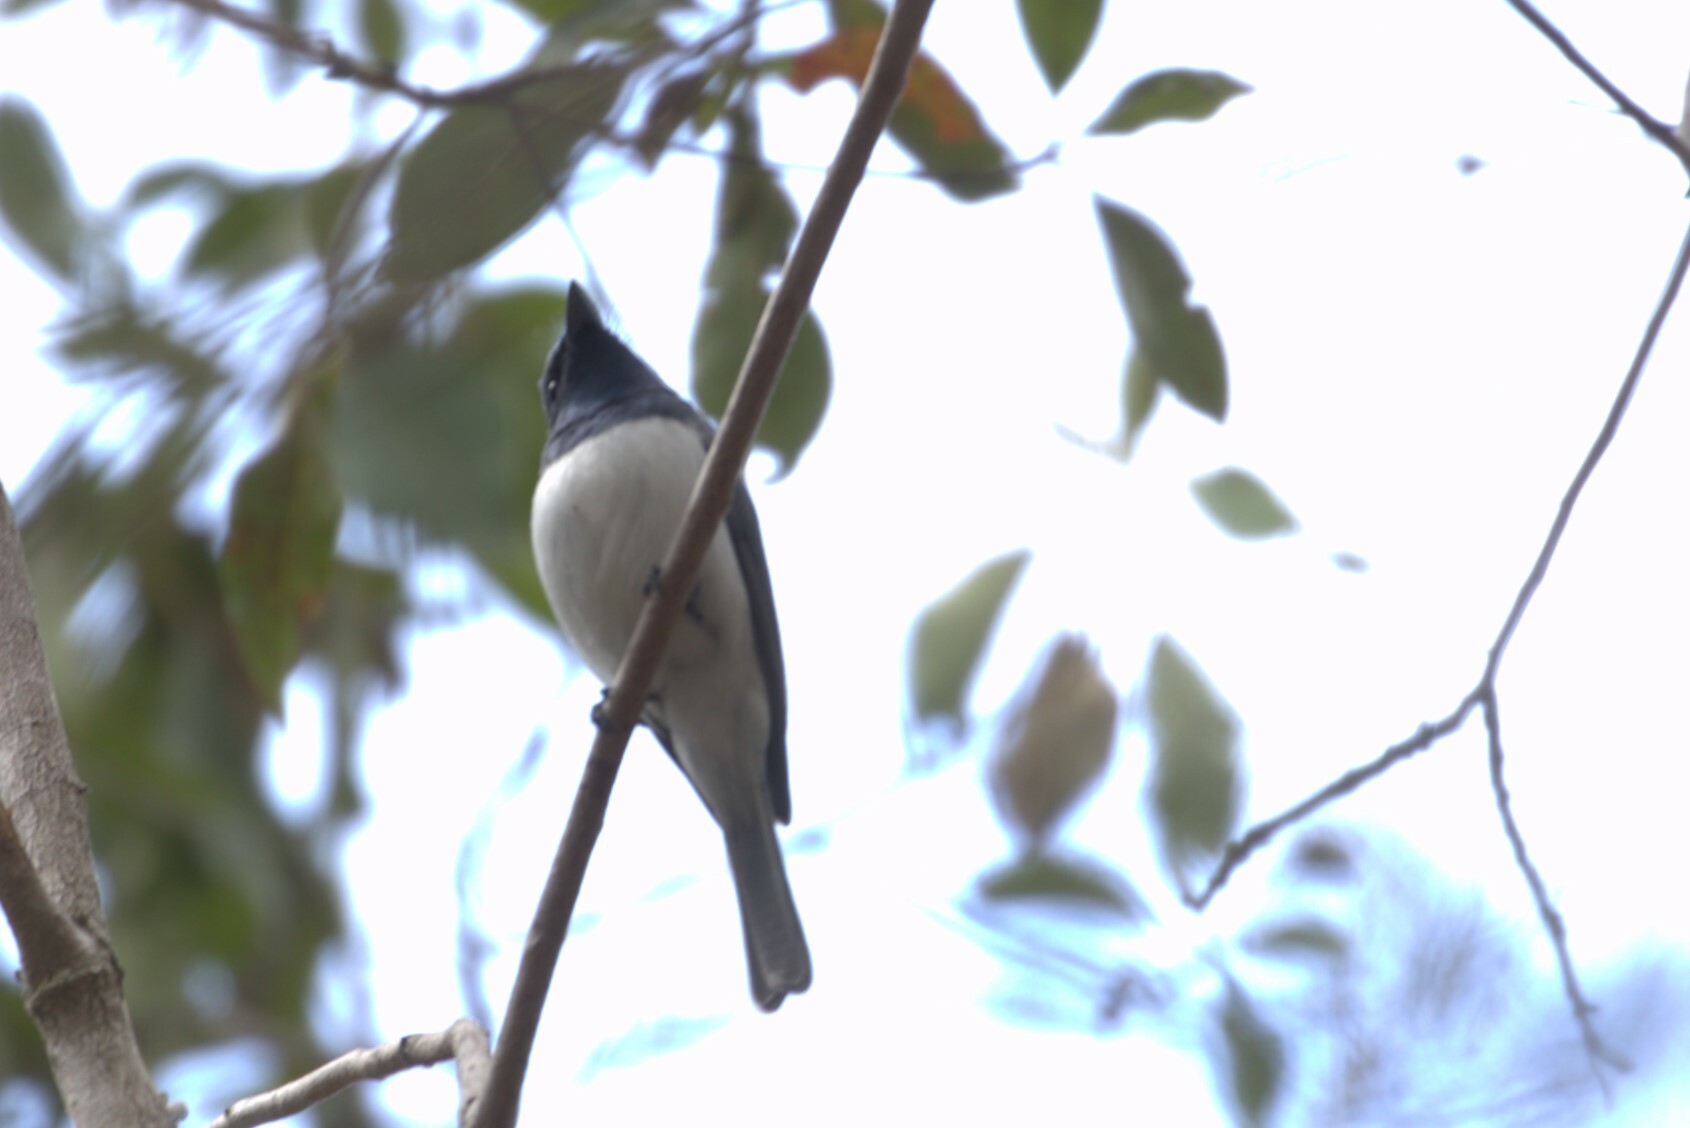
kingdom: Animalia
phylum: Chordata
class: Aves
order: Passeriformes
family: Monarchidae
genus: Myiagra
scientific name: Myiagra rubecula
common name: Leaden flycatcher
